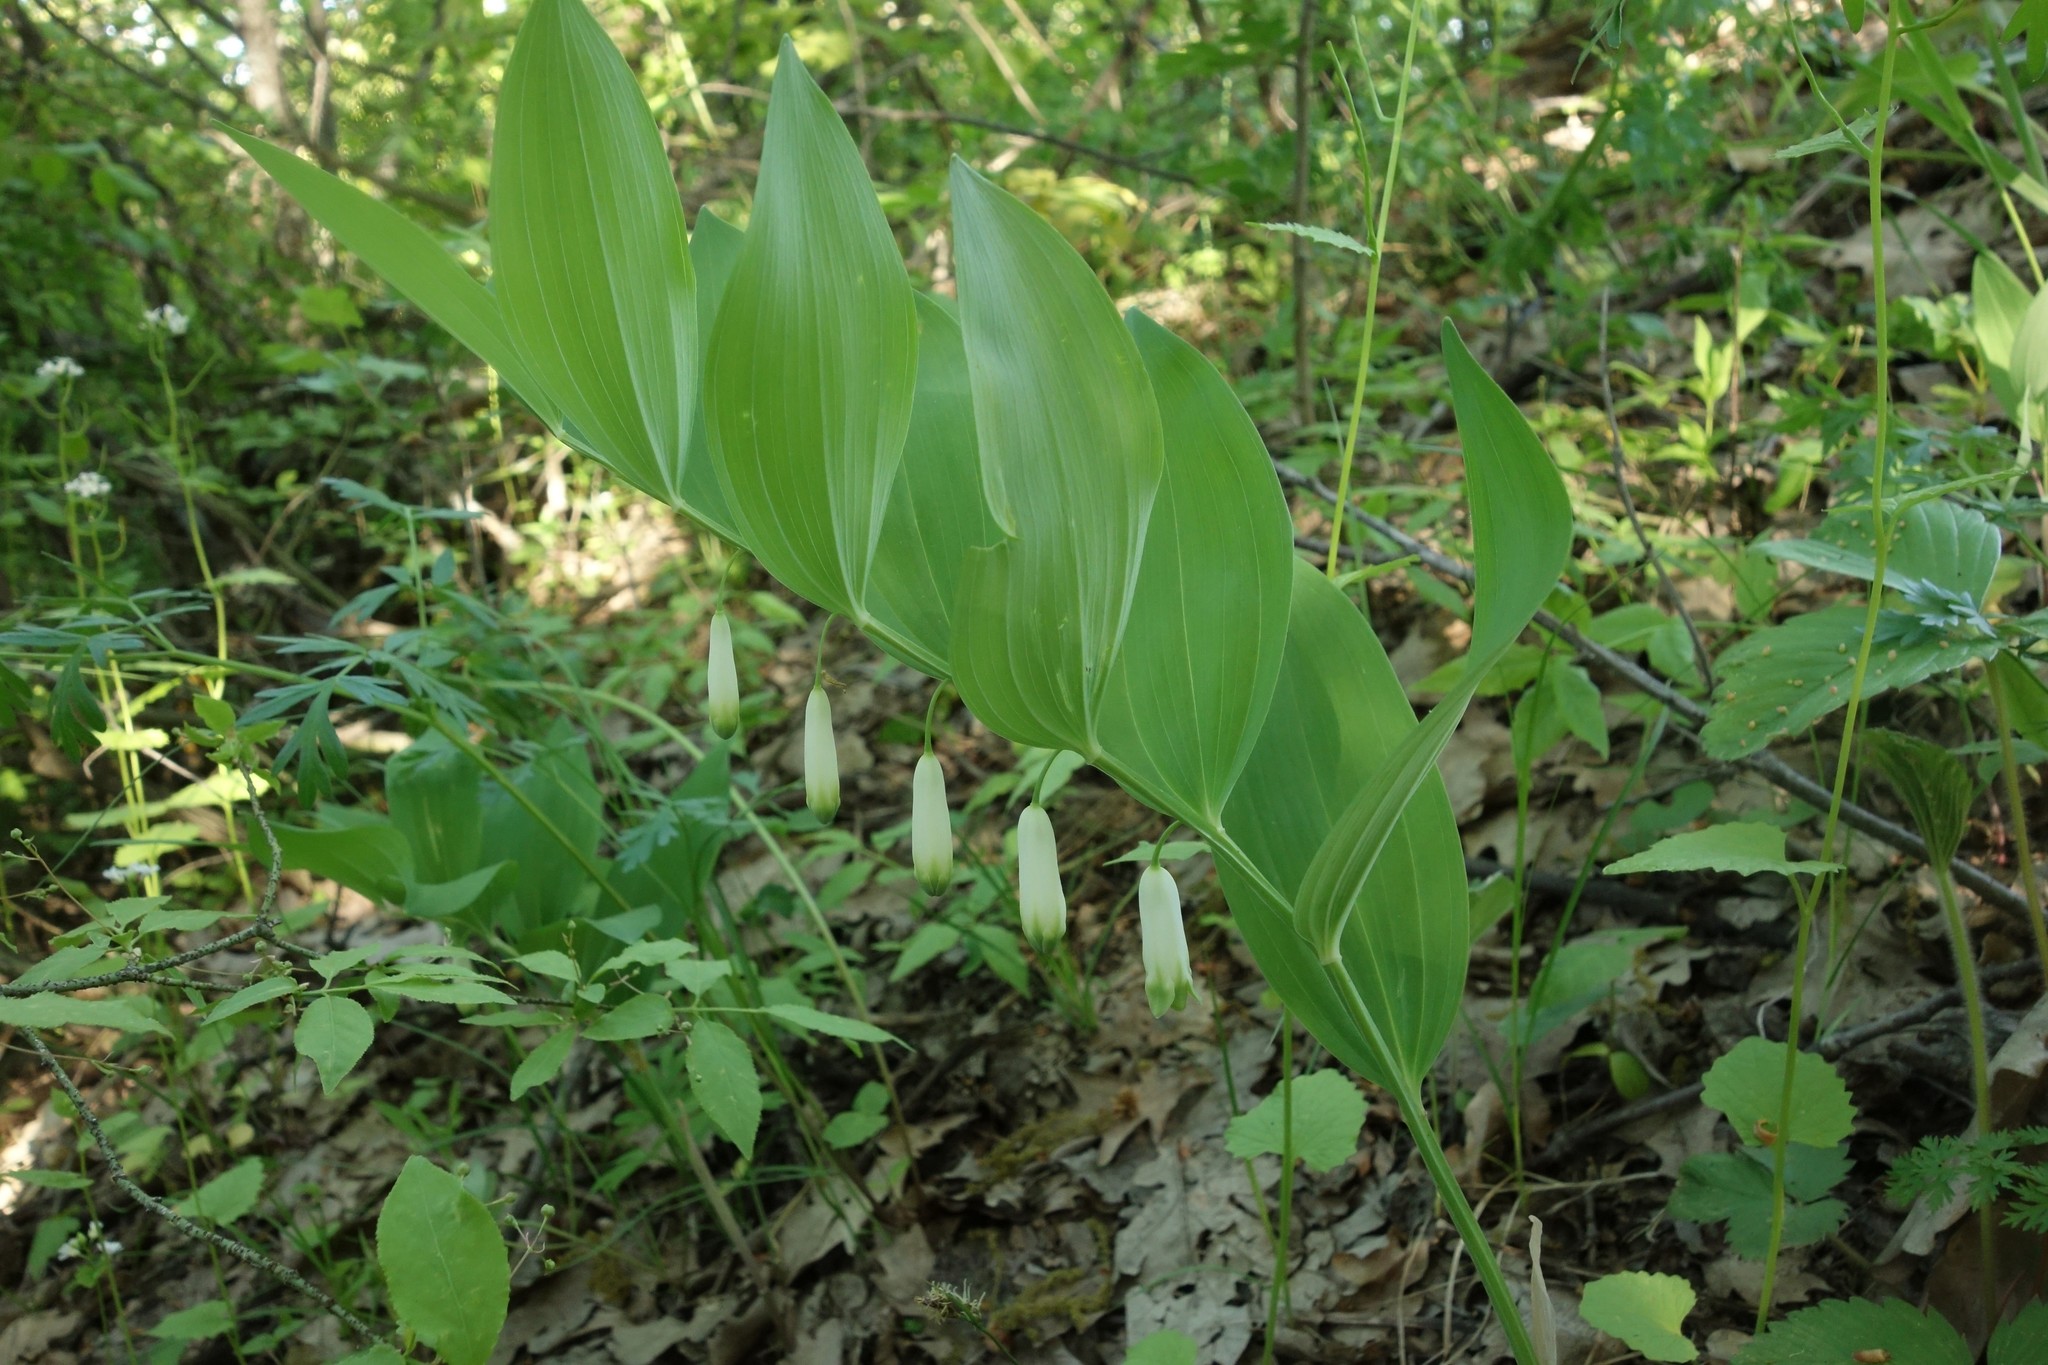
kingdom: Plantae
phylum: Tracheophyta
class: Liliopsida
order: Asparagales
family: Asparagaceae
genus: Polygonatum
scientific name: Polygonatum odoratum
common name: Angular solomon's-seal
